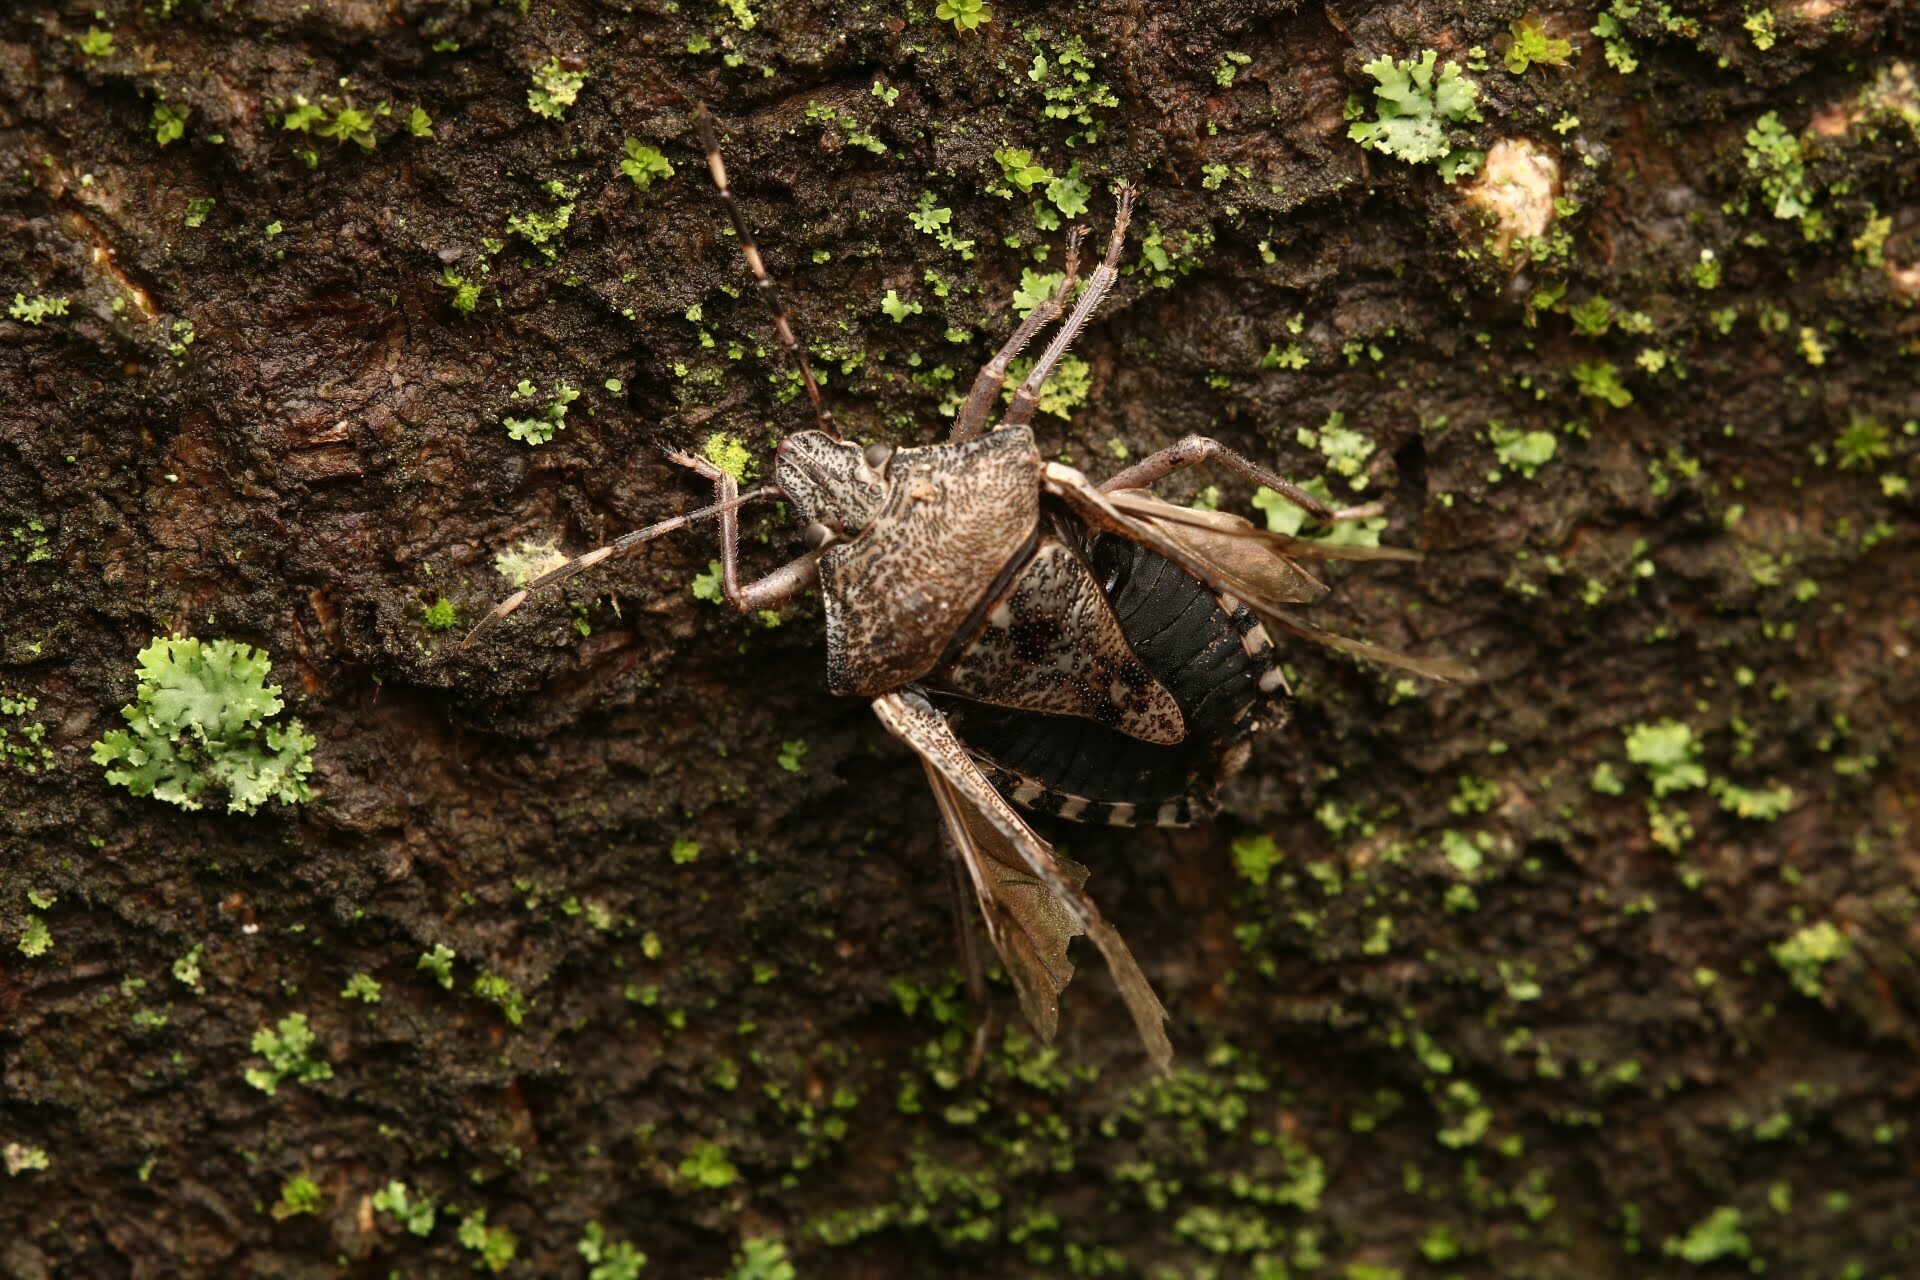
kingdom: Animalia
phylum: Arthropoda
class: Insecta
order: Hemiptera
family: Pentatomidae
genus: Rhaphigaster
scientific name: Rhaphigaster nebulosa
